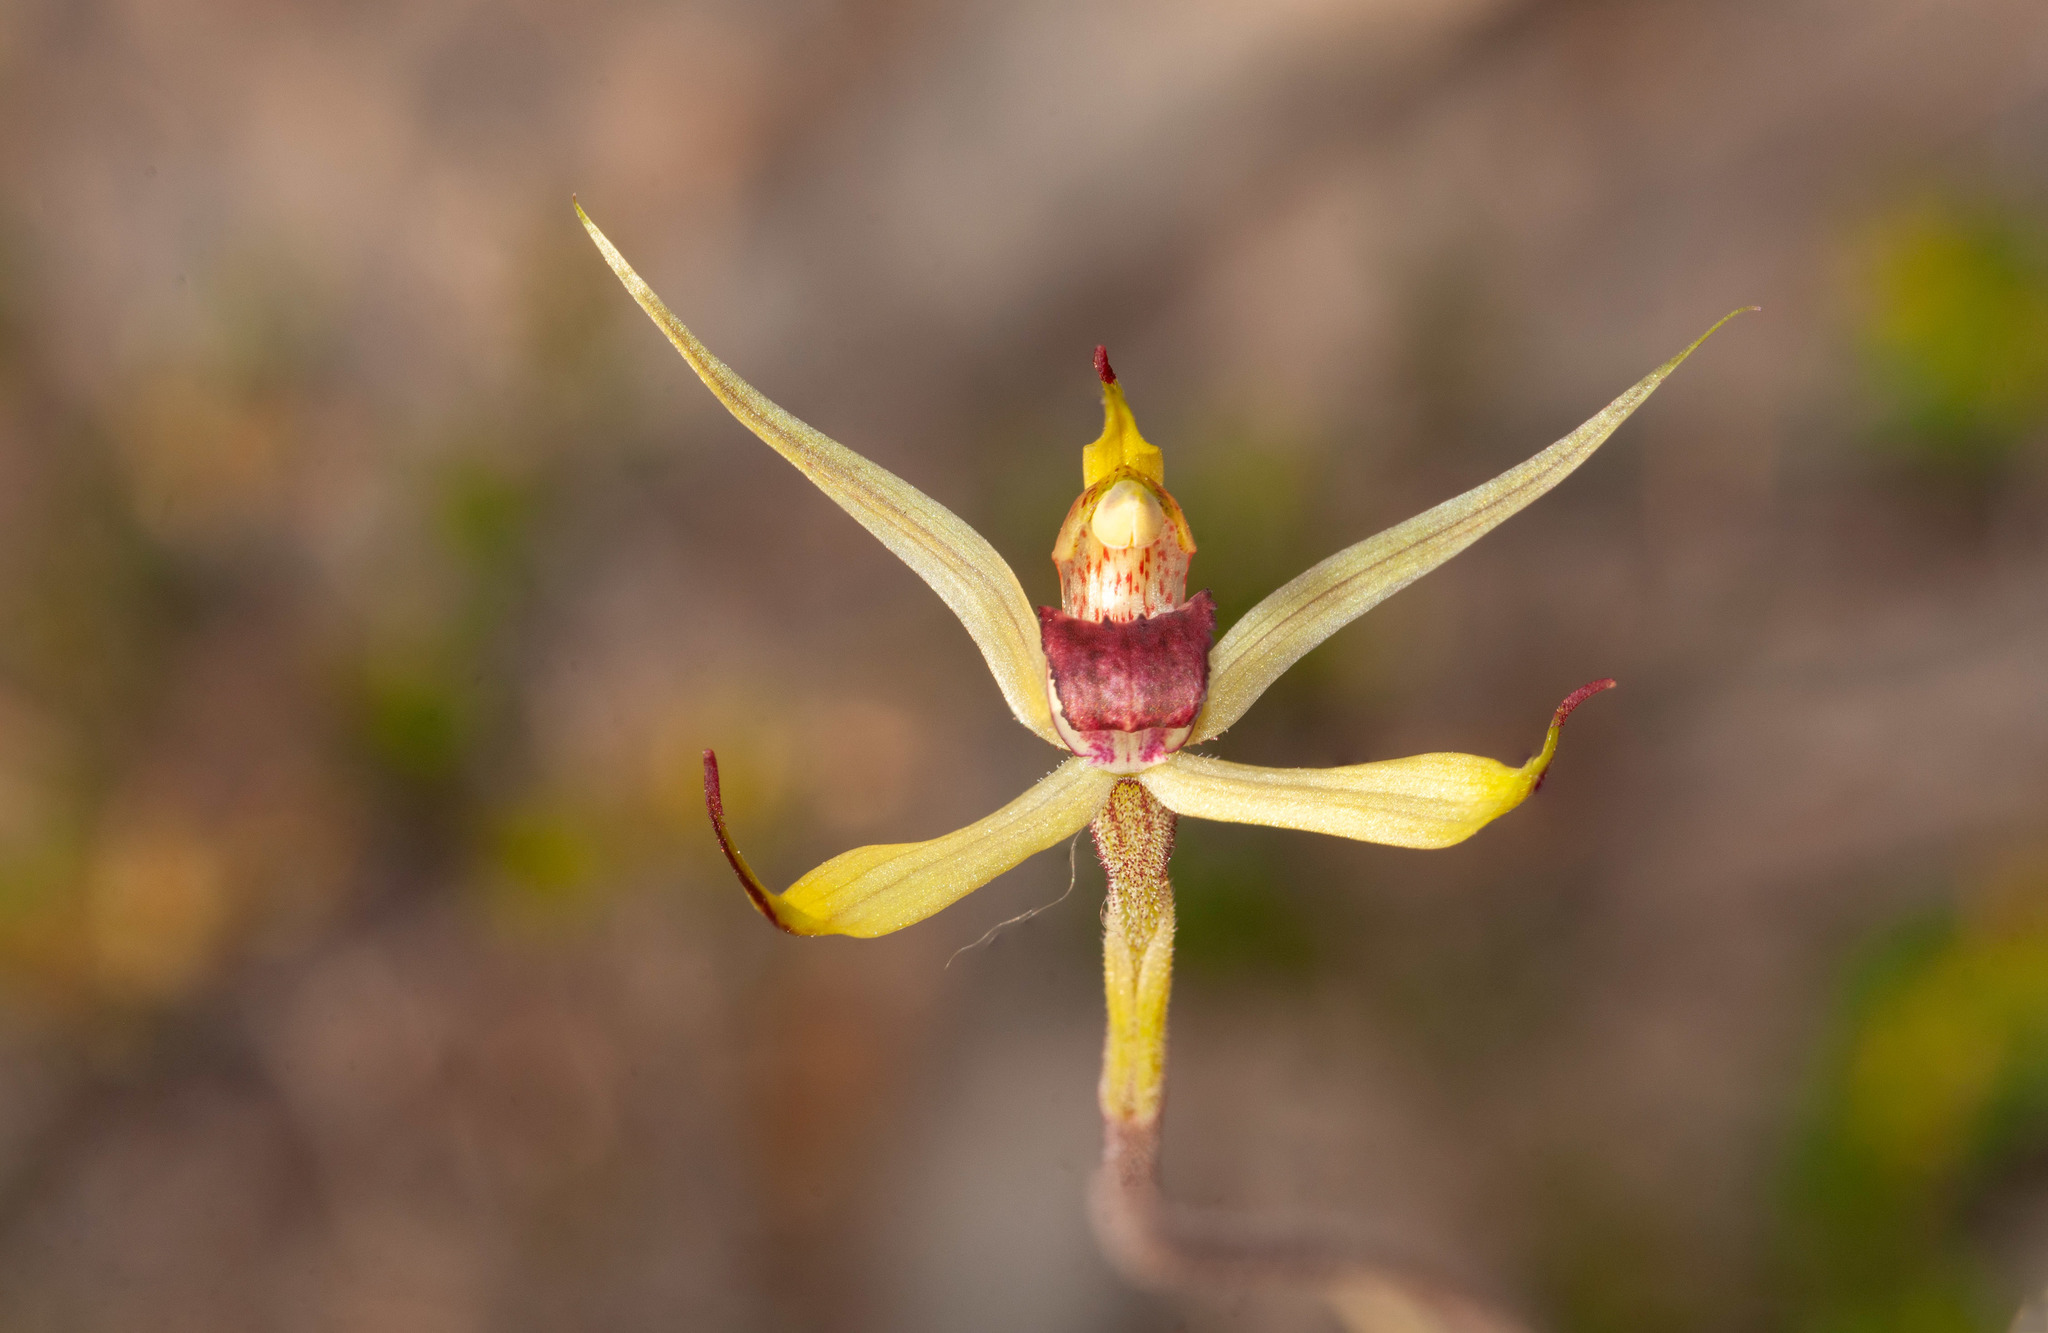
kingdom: Plantae
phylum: Tracheophyta
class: Liliopsida
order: Asparagales
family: Orchidaceae
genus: Caladenia
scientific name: Caladenia leptochila
